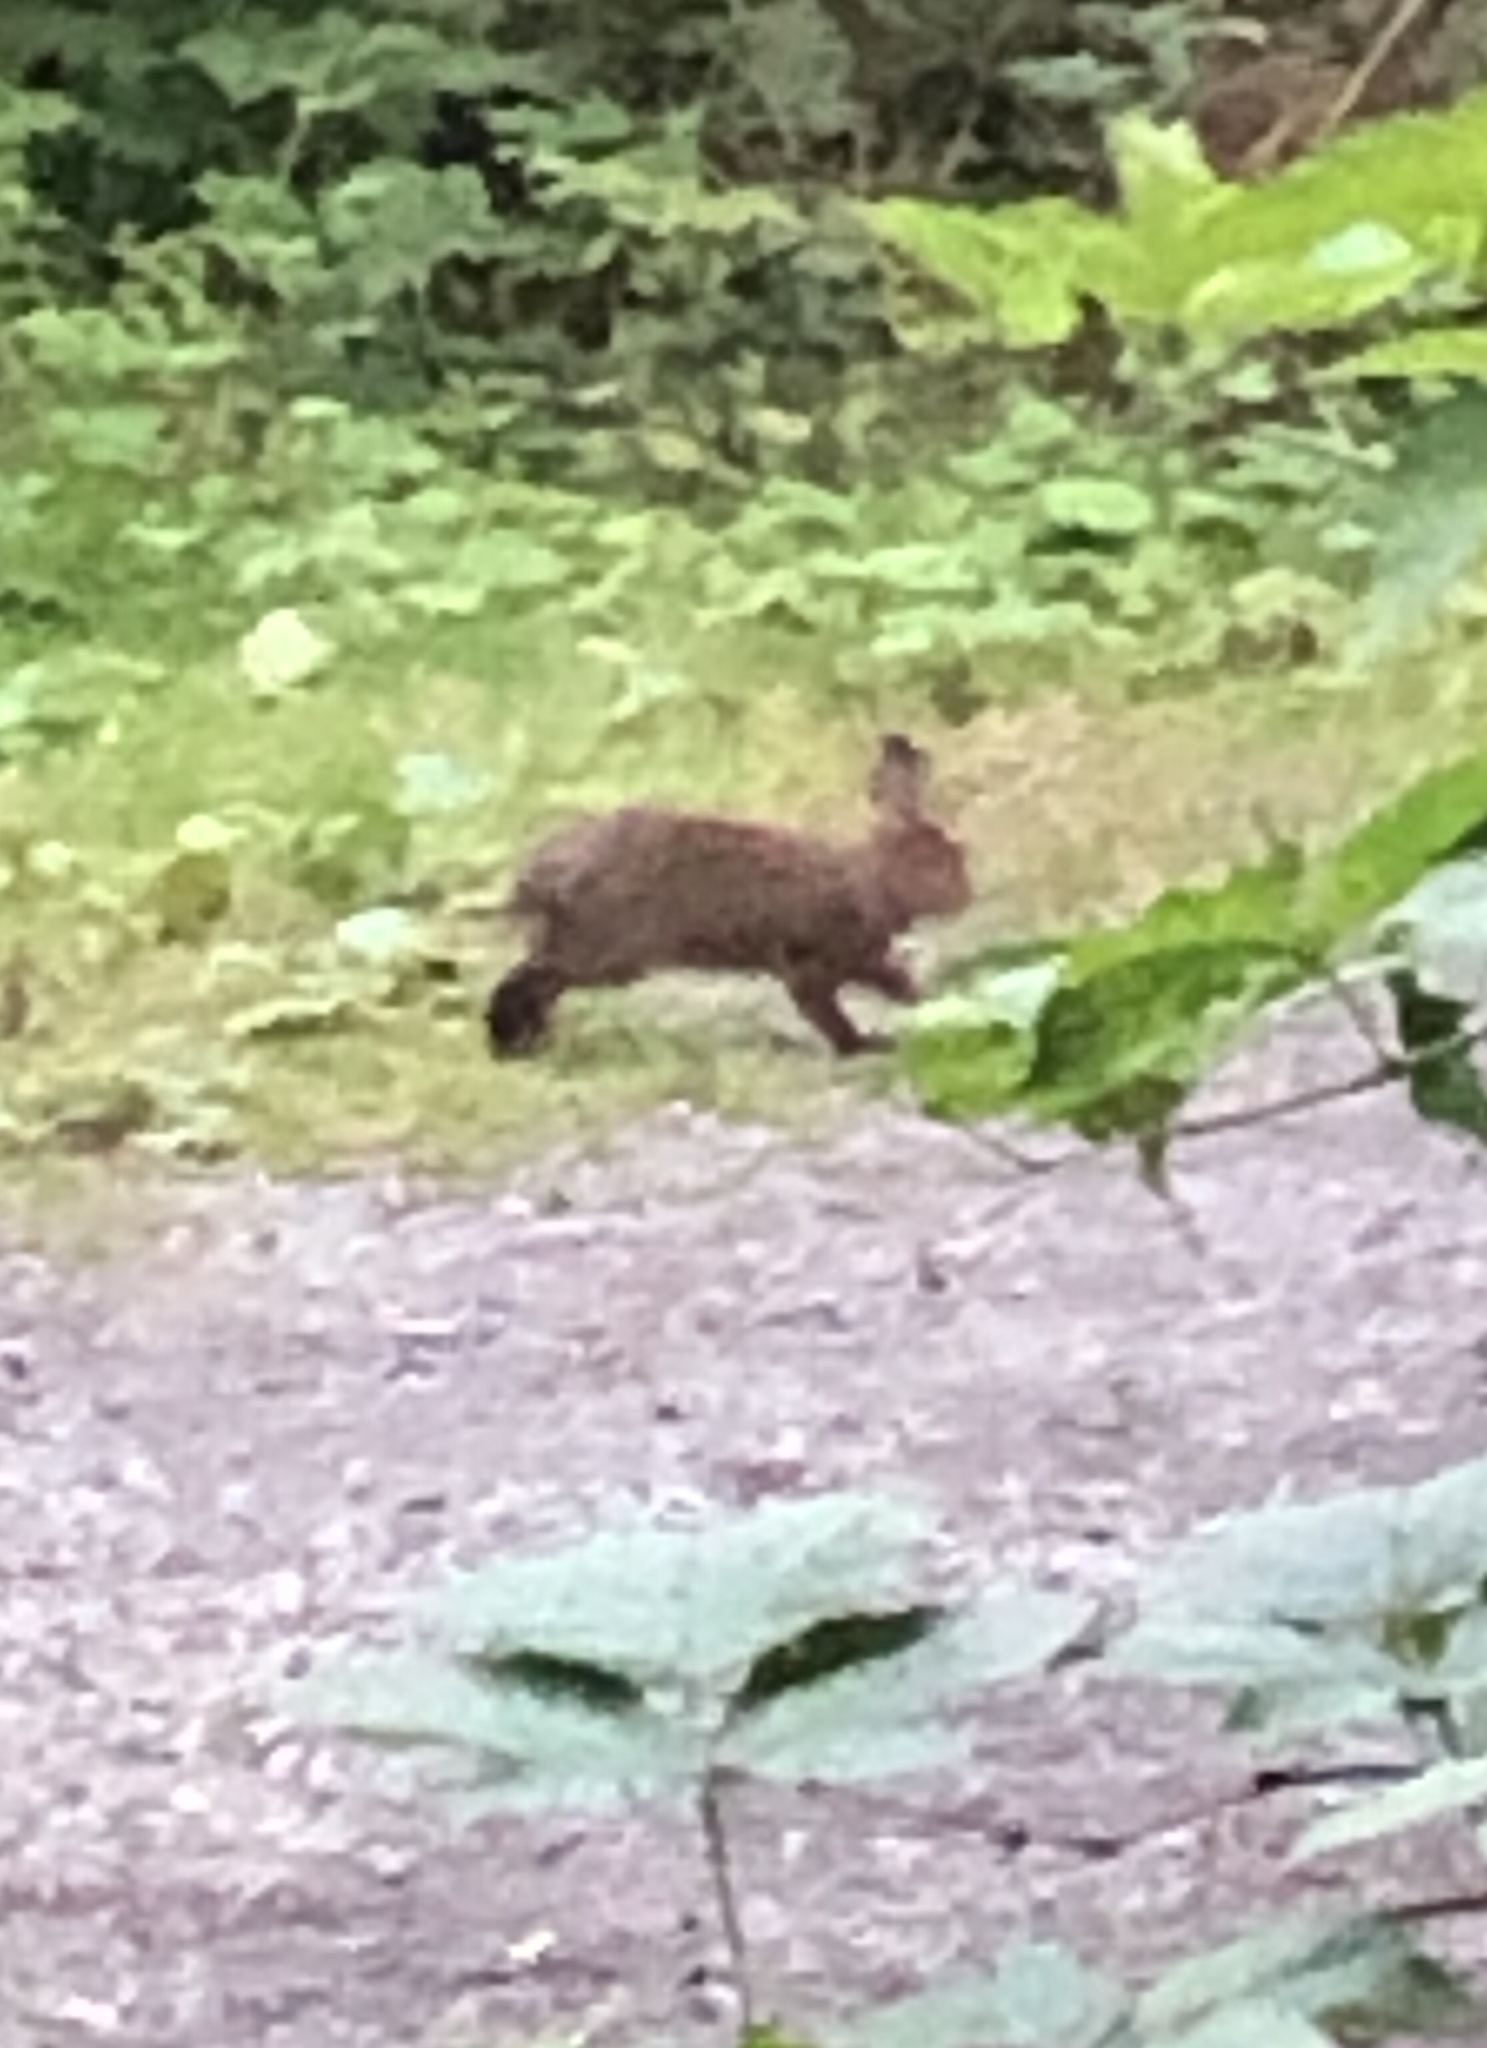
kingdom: Animalia
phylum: Chordata
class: Mammalia
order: Lagomorpha
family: Leporidae
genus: Lepus
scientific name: Lepus americanus
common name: Snowshoe hare
